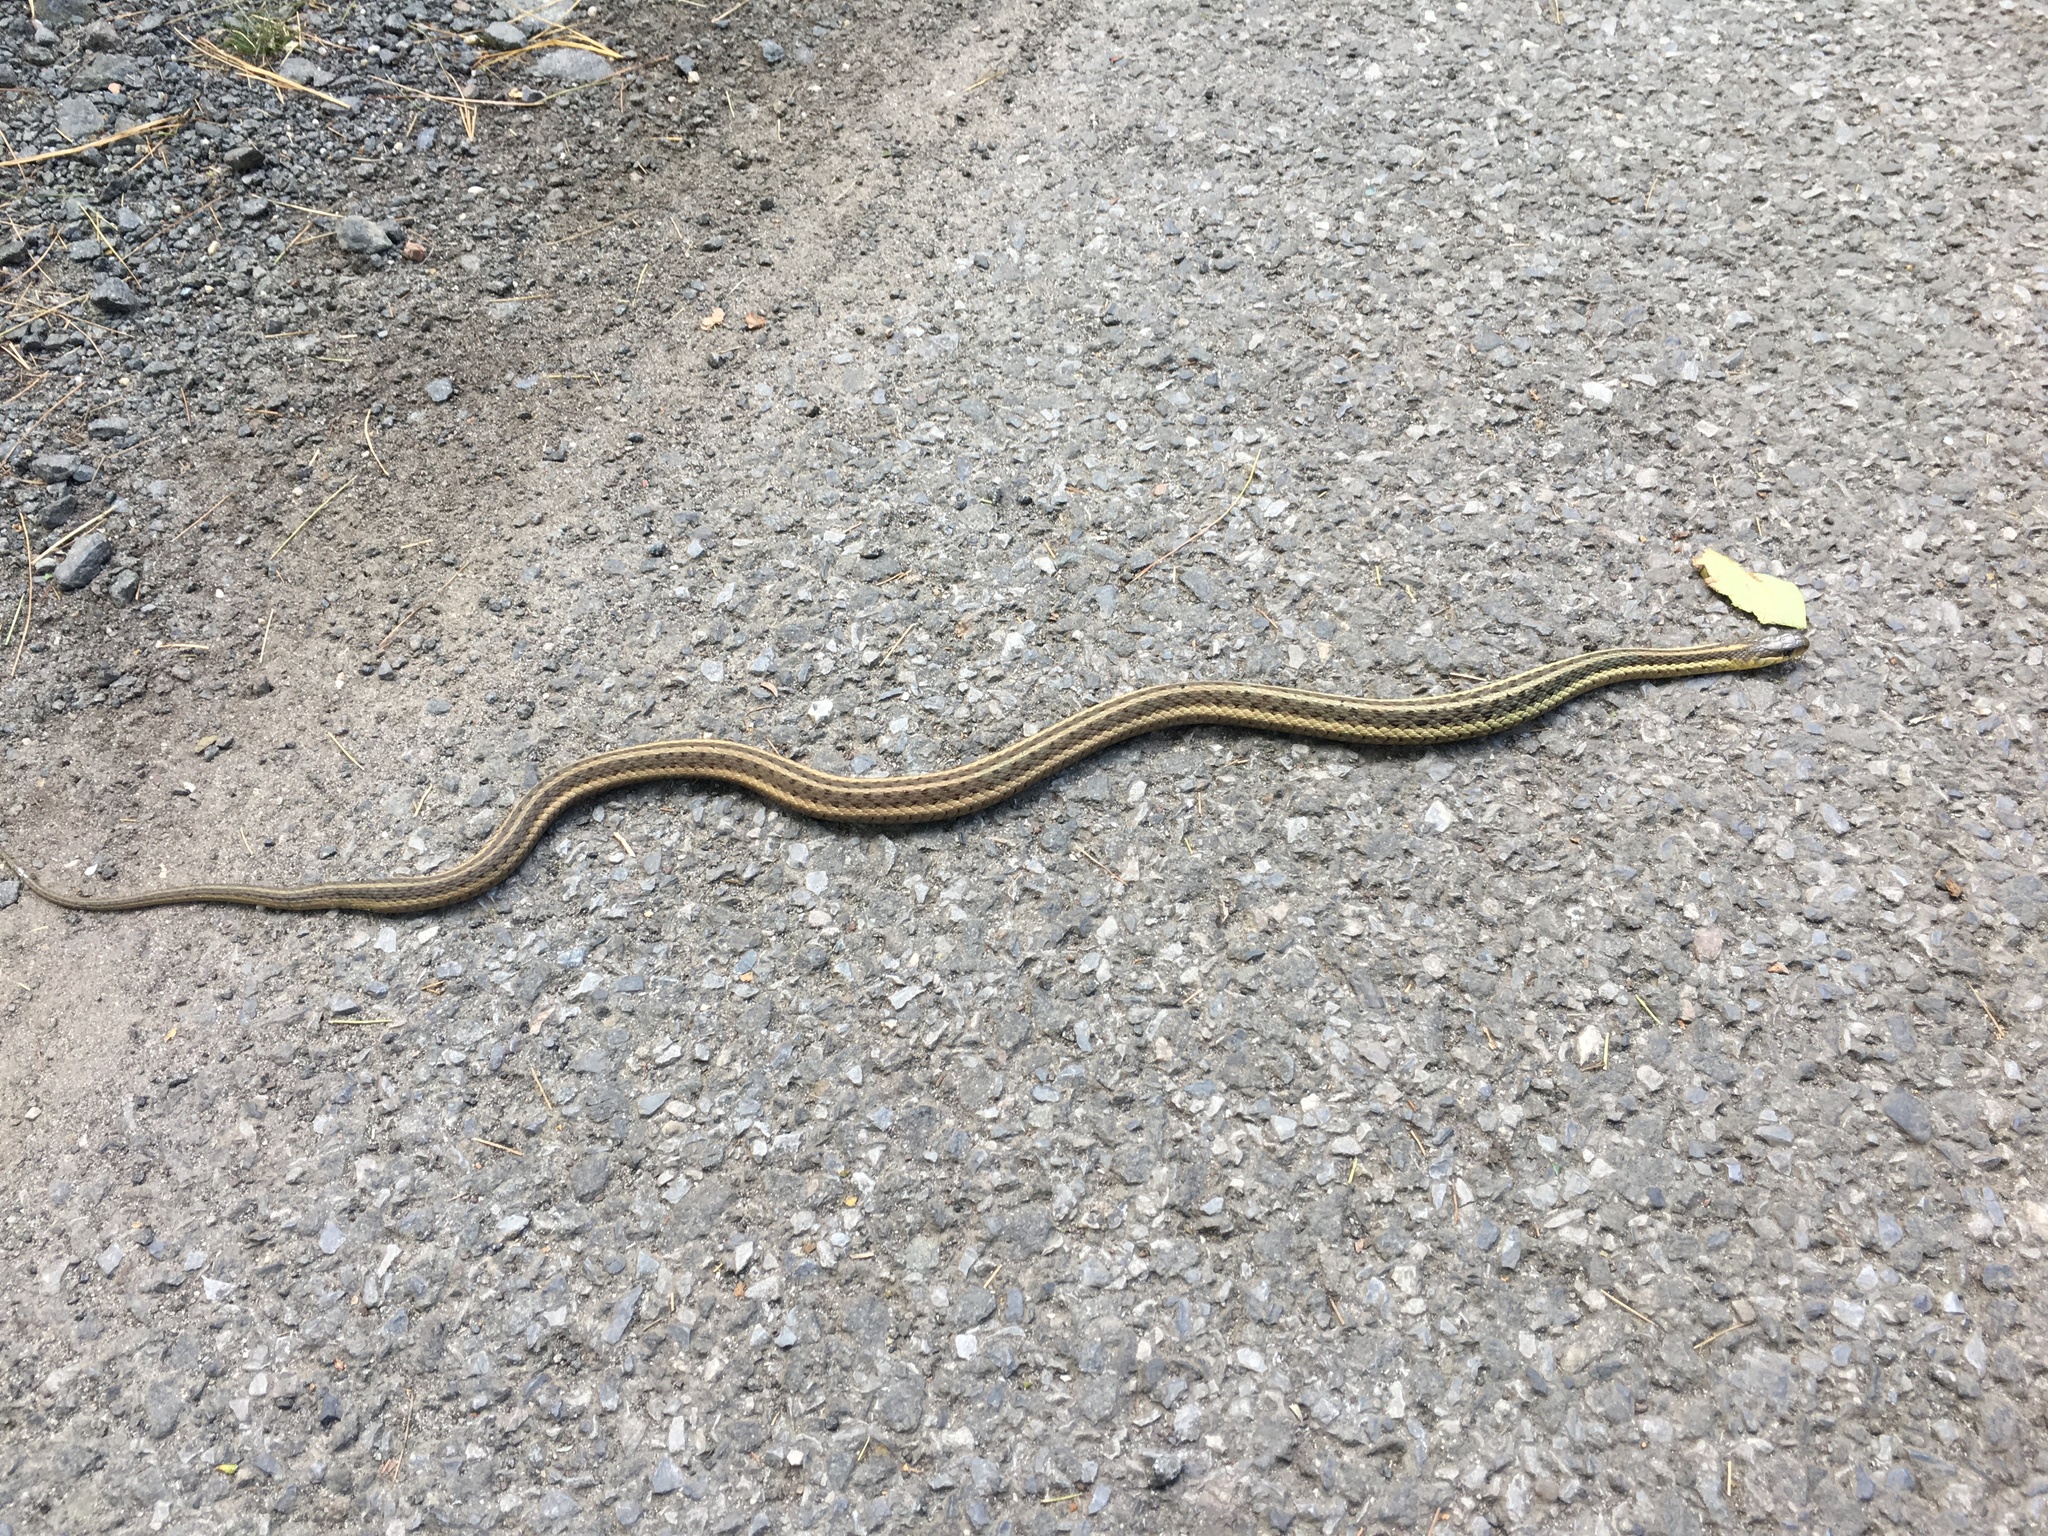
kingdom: Animalia
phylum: Chordata
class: Squamata
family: Colubridae
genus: Thamnophis
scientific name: Thamnophis sirtalis
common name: Common garter snake
